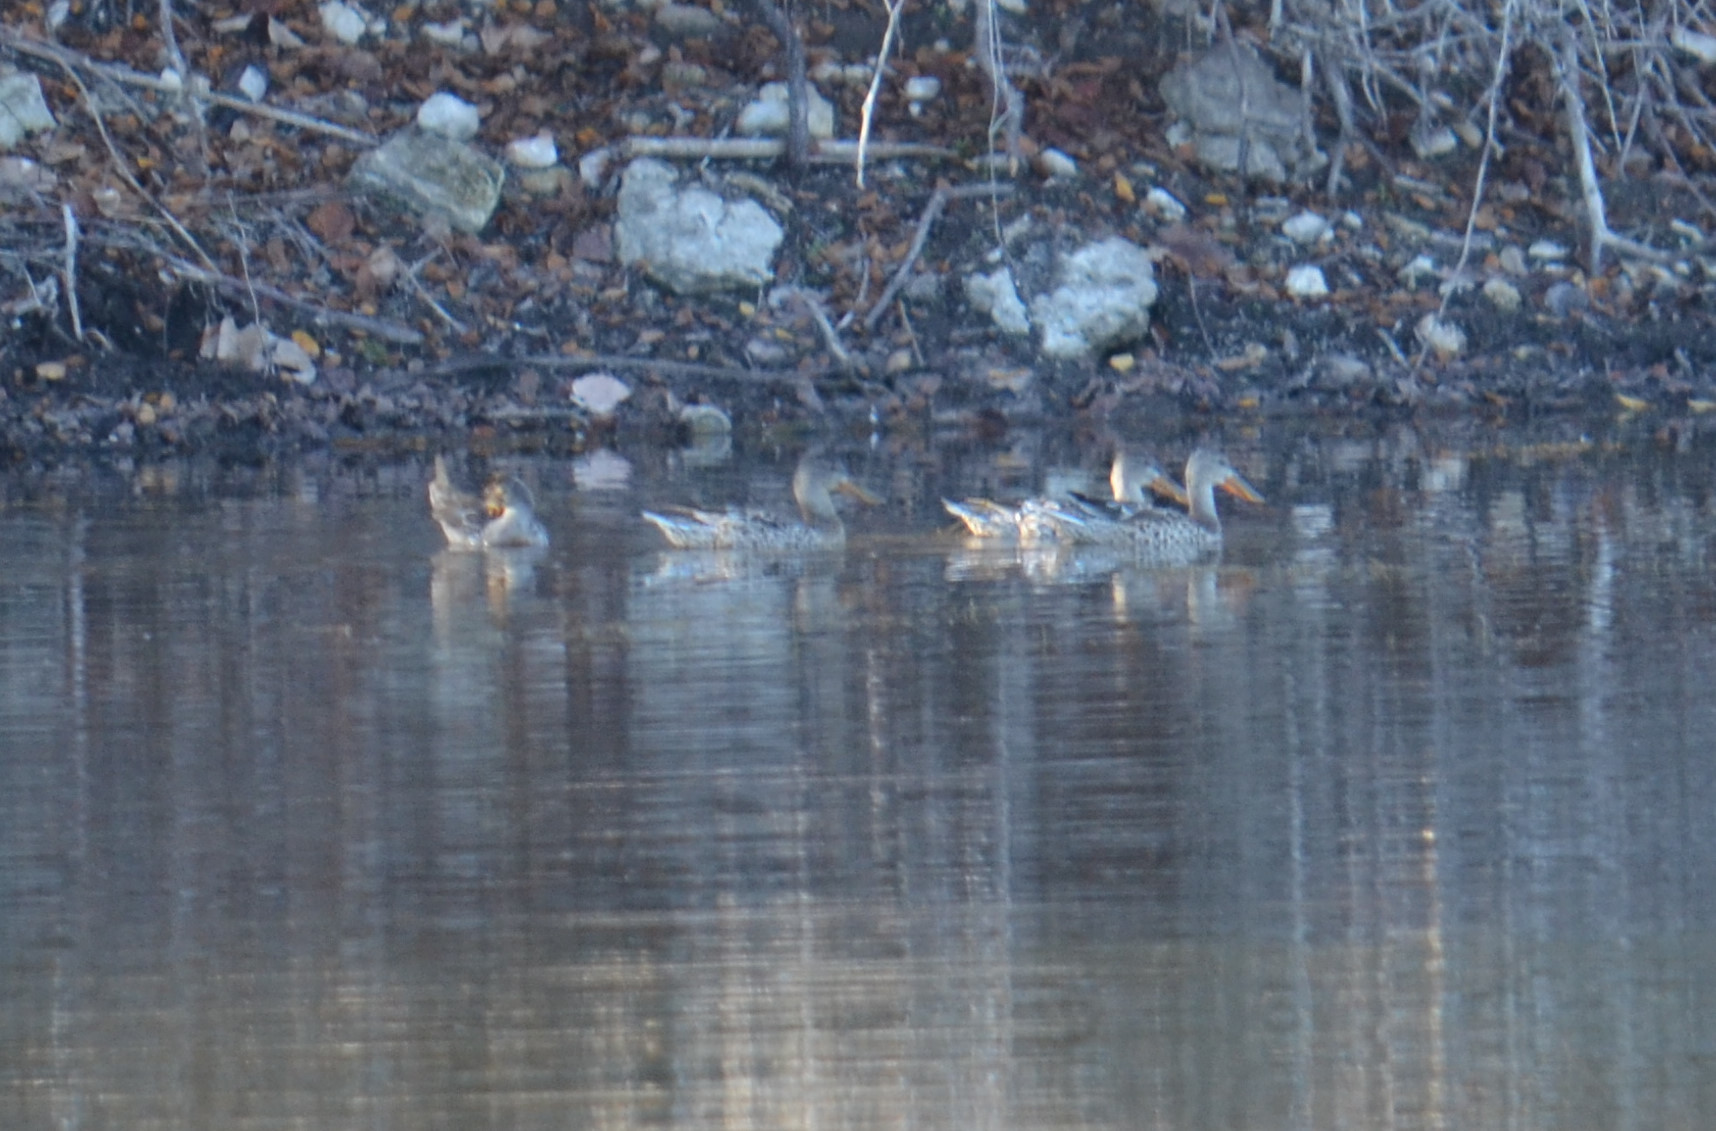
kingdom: Animalia
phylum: Chordata
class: Aves
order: Anseriformes
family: Anatidae
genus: Spatula
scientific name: Spatula clypeata
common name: Northern shoveler
